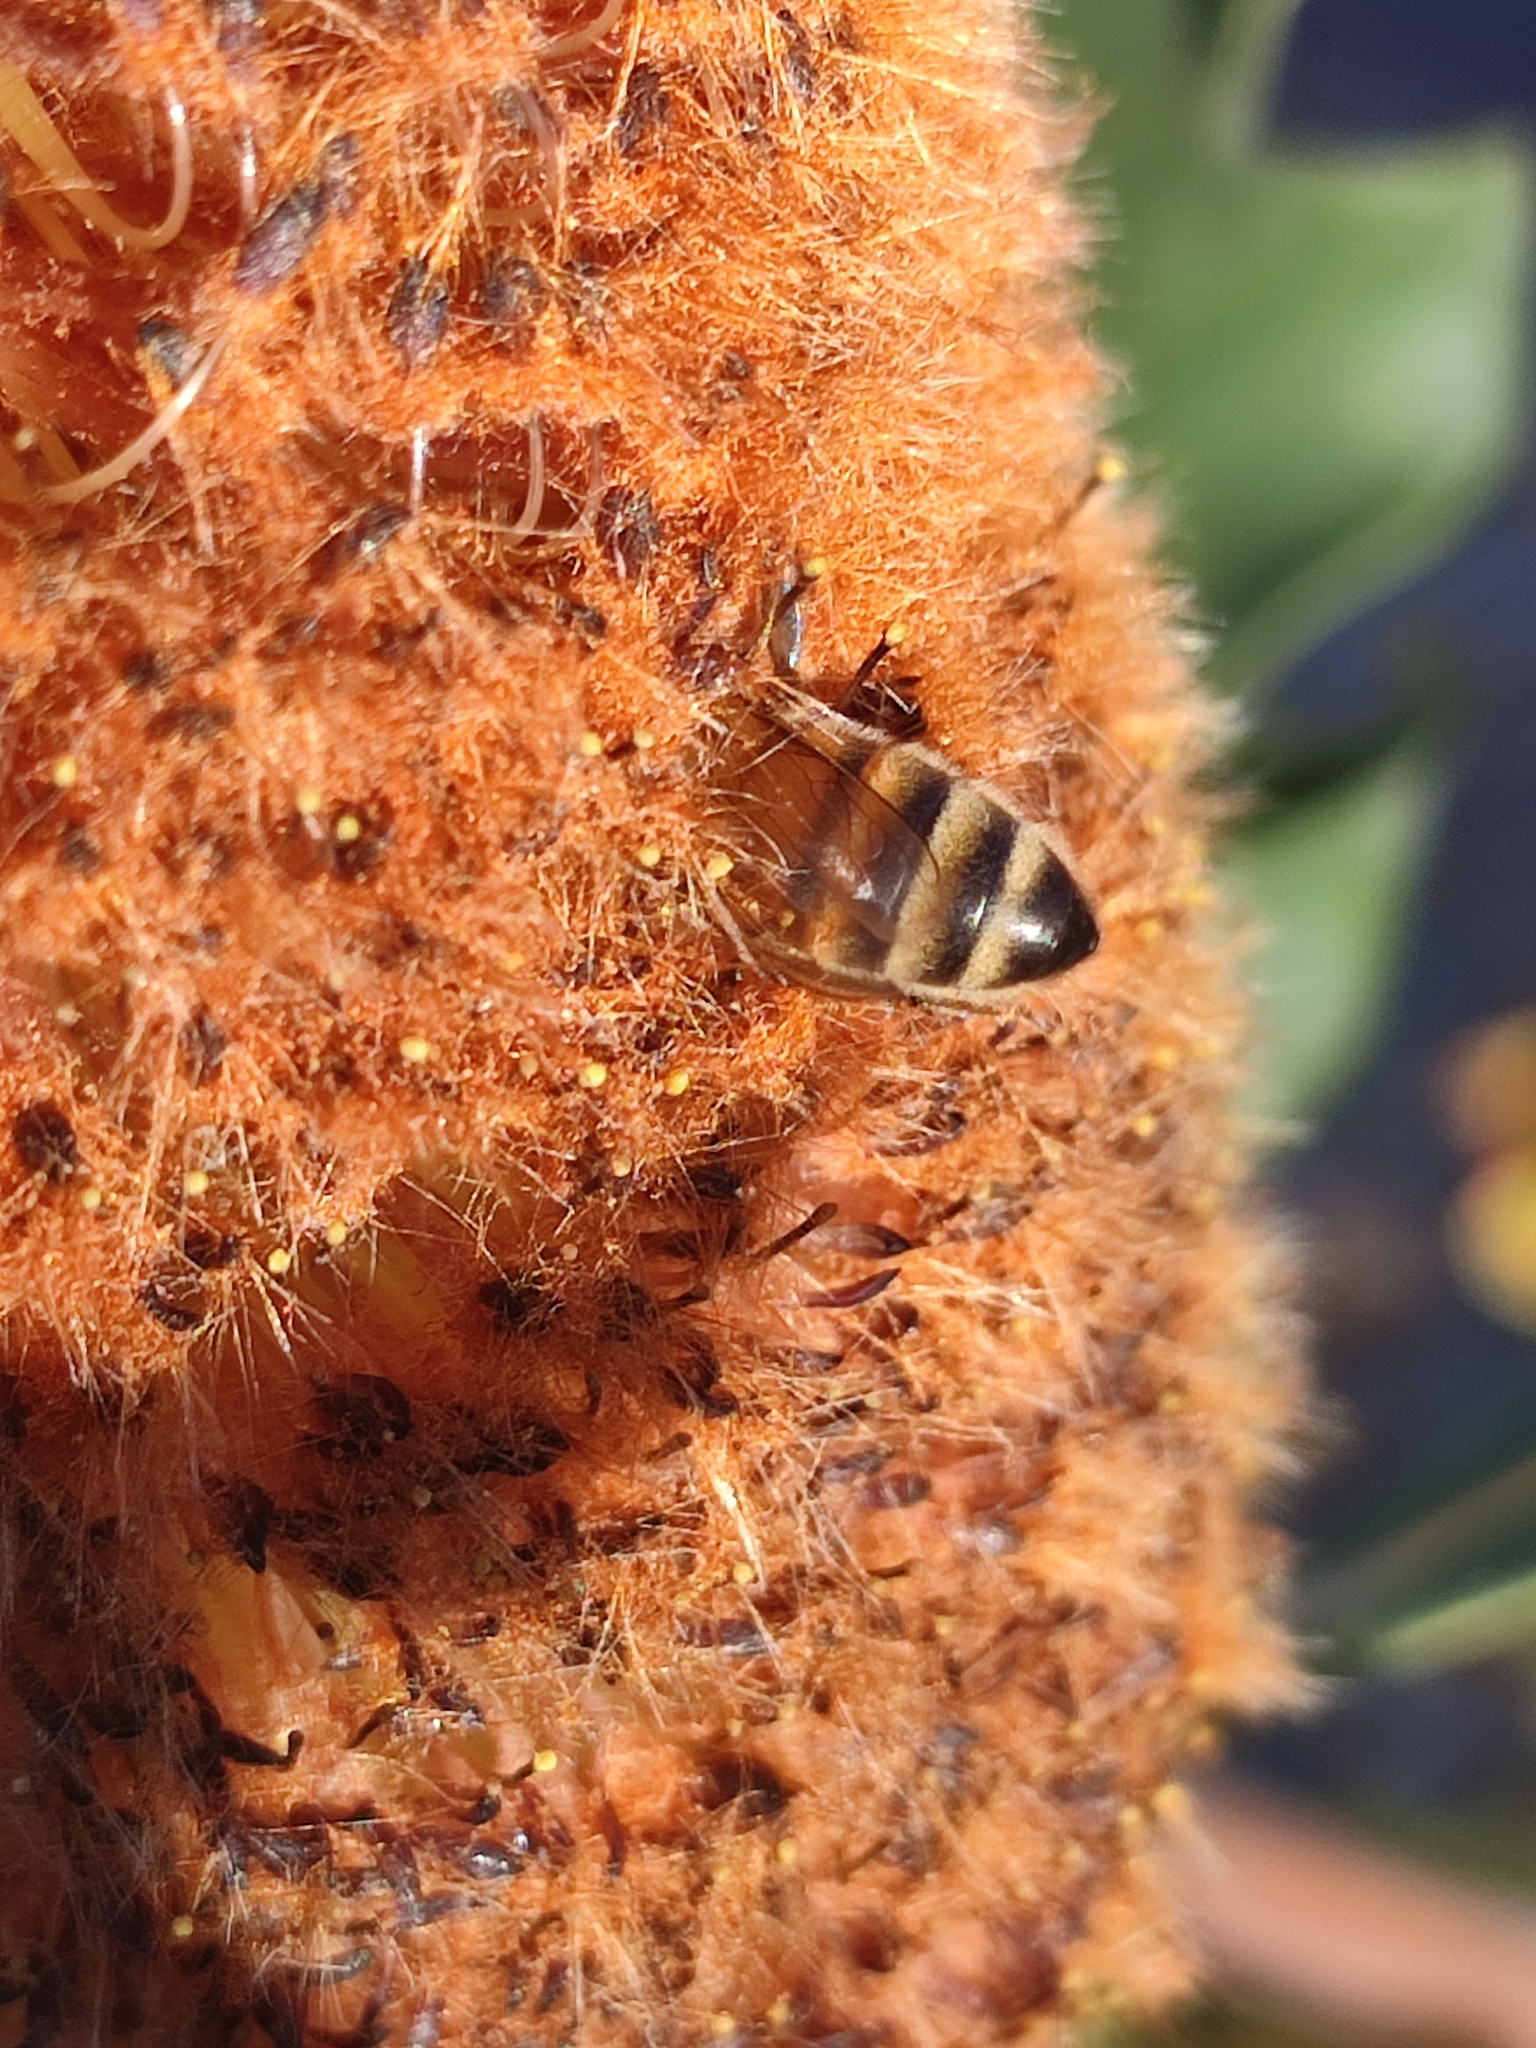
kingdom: Animalia
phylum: Arthropoda
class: Insecta
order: Hymenoptera
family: Apidae
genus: Apis
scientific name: Apis mellifera
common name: Honey bee
